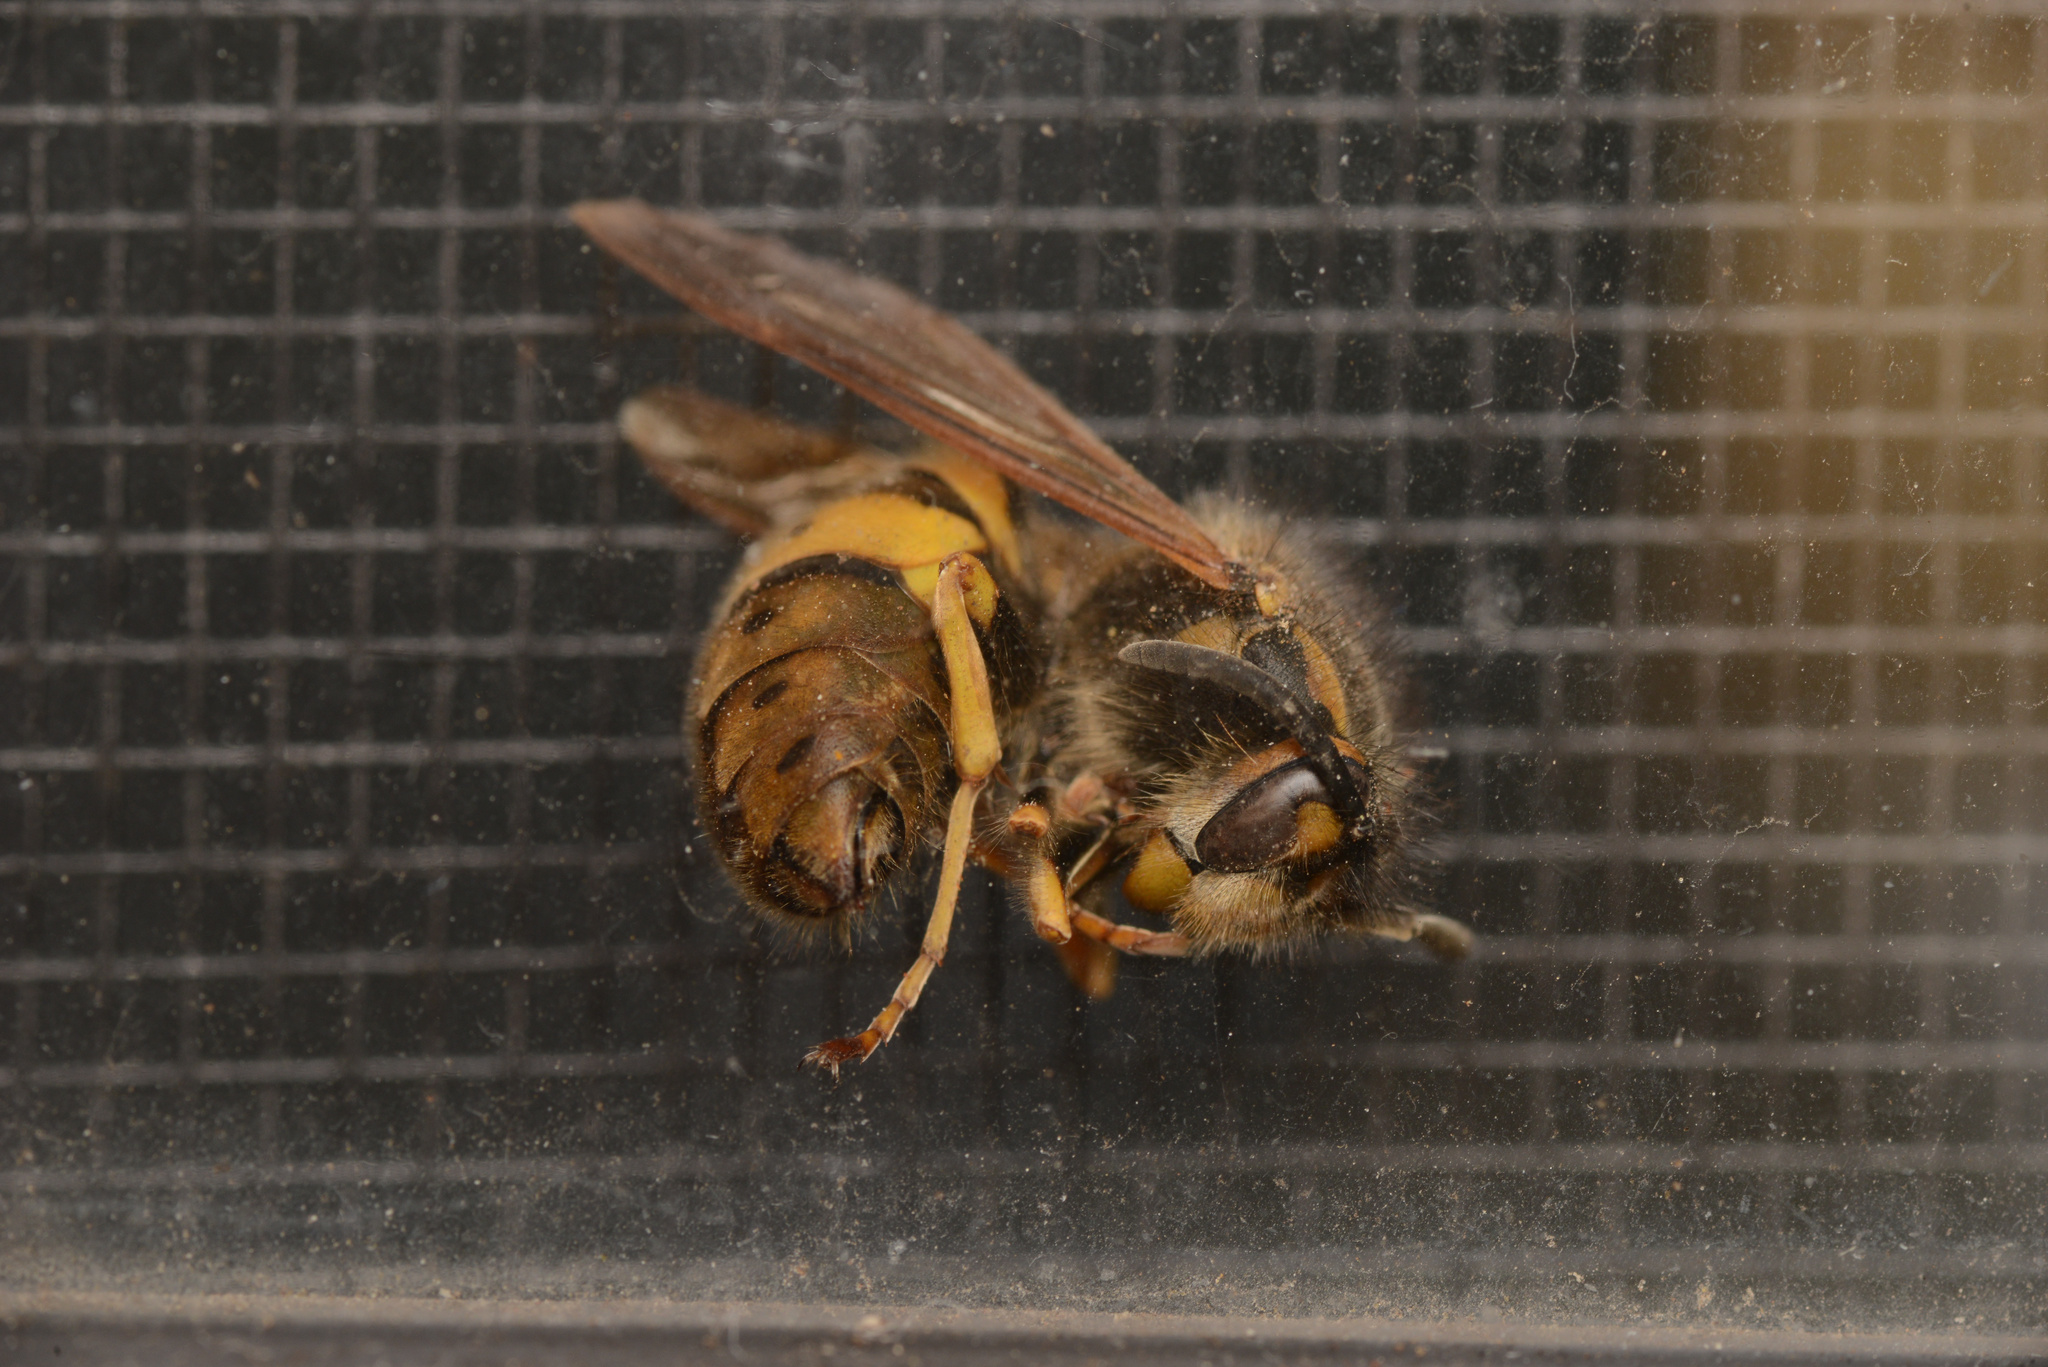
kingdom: Animalia
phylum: Arthropoda
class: Insecta
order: Hymenoptera
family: Vespidae
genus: Vespula
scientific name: Vespula germanica
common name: German wasp
